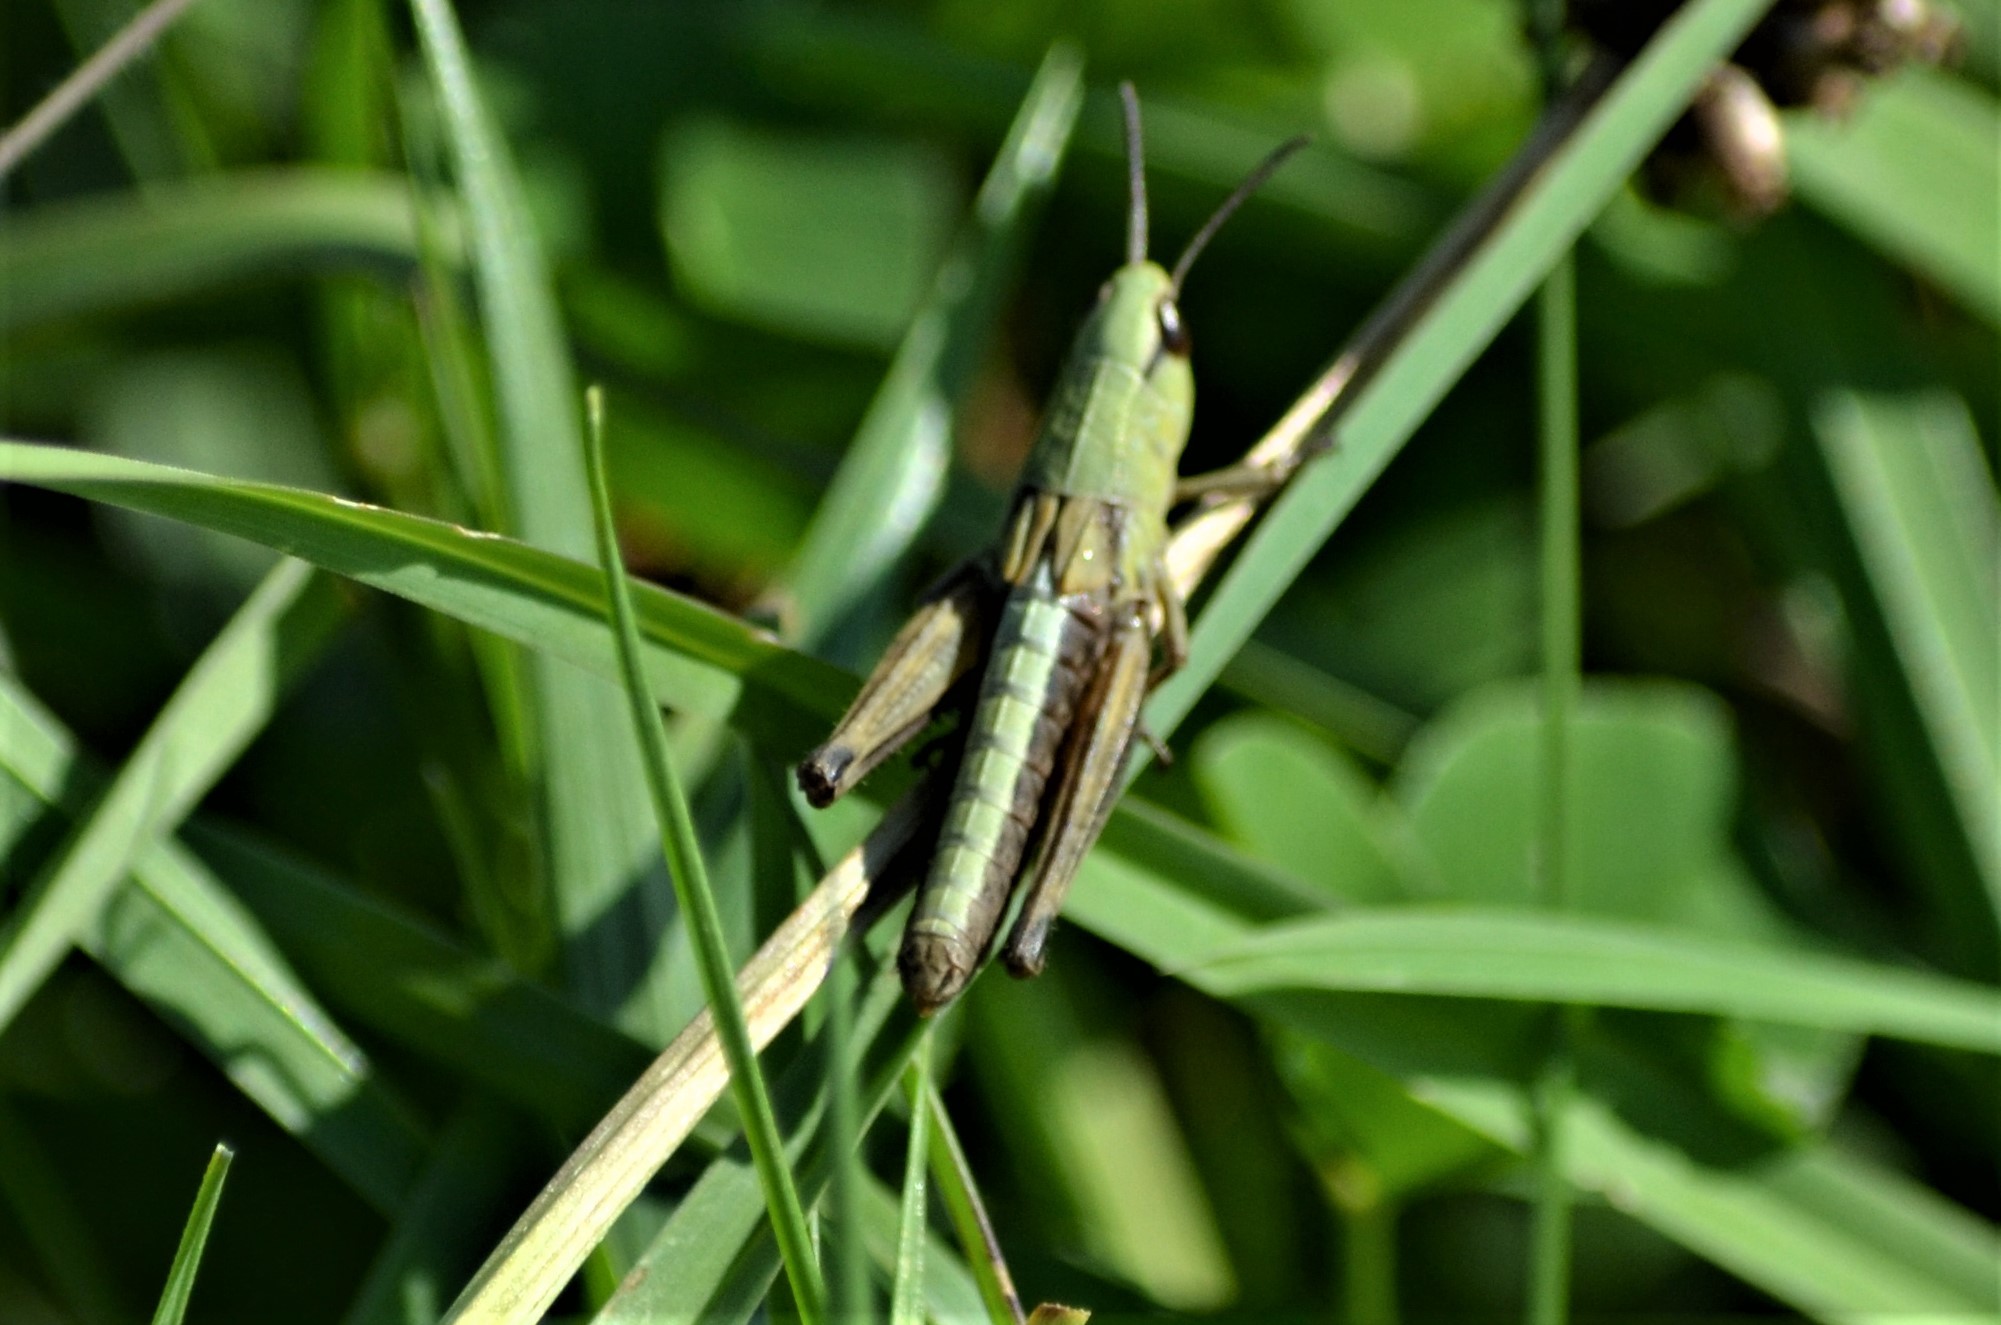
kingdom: Animalia
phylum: Arthropoda
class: Insecta
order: Orthoptera
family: Acrididae
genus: Pseudochorthippus
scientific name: Pseudochorthippus parallelus
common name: Meadow grasshopper
